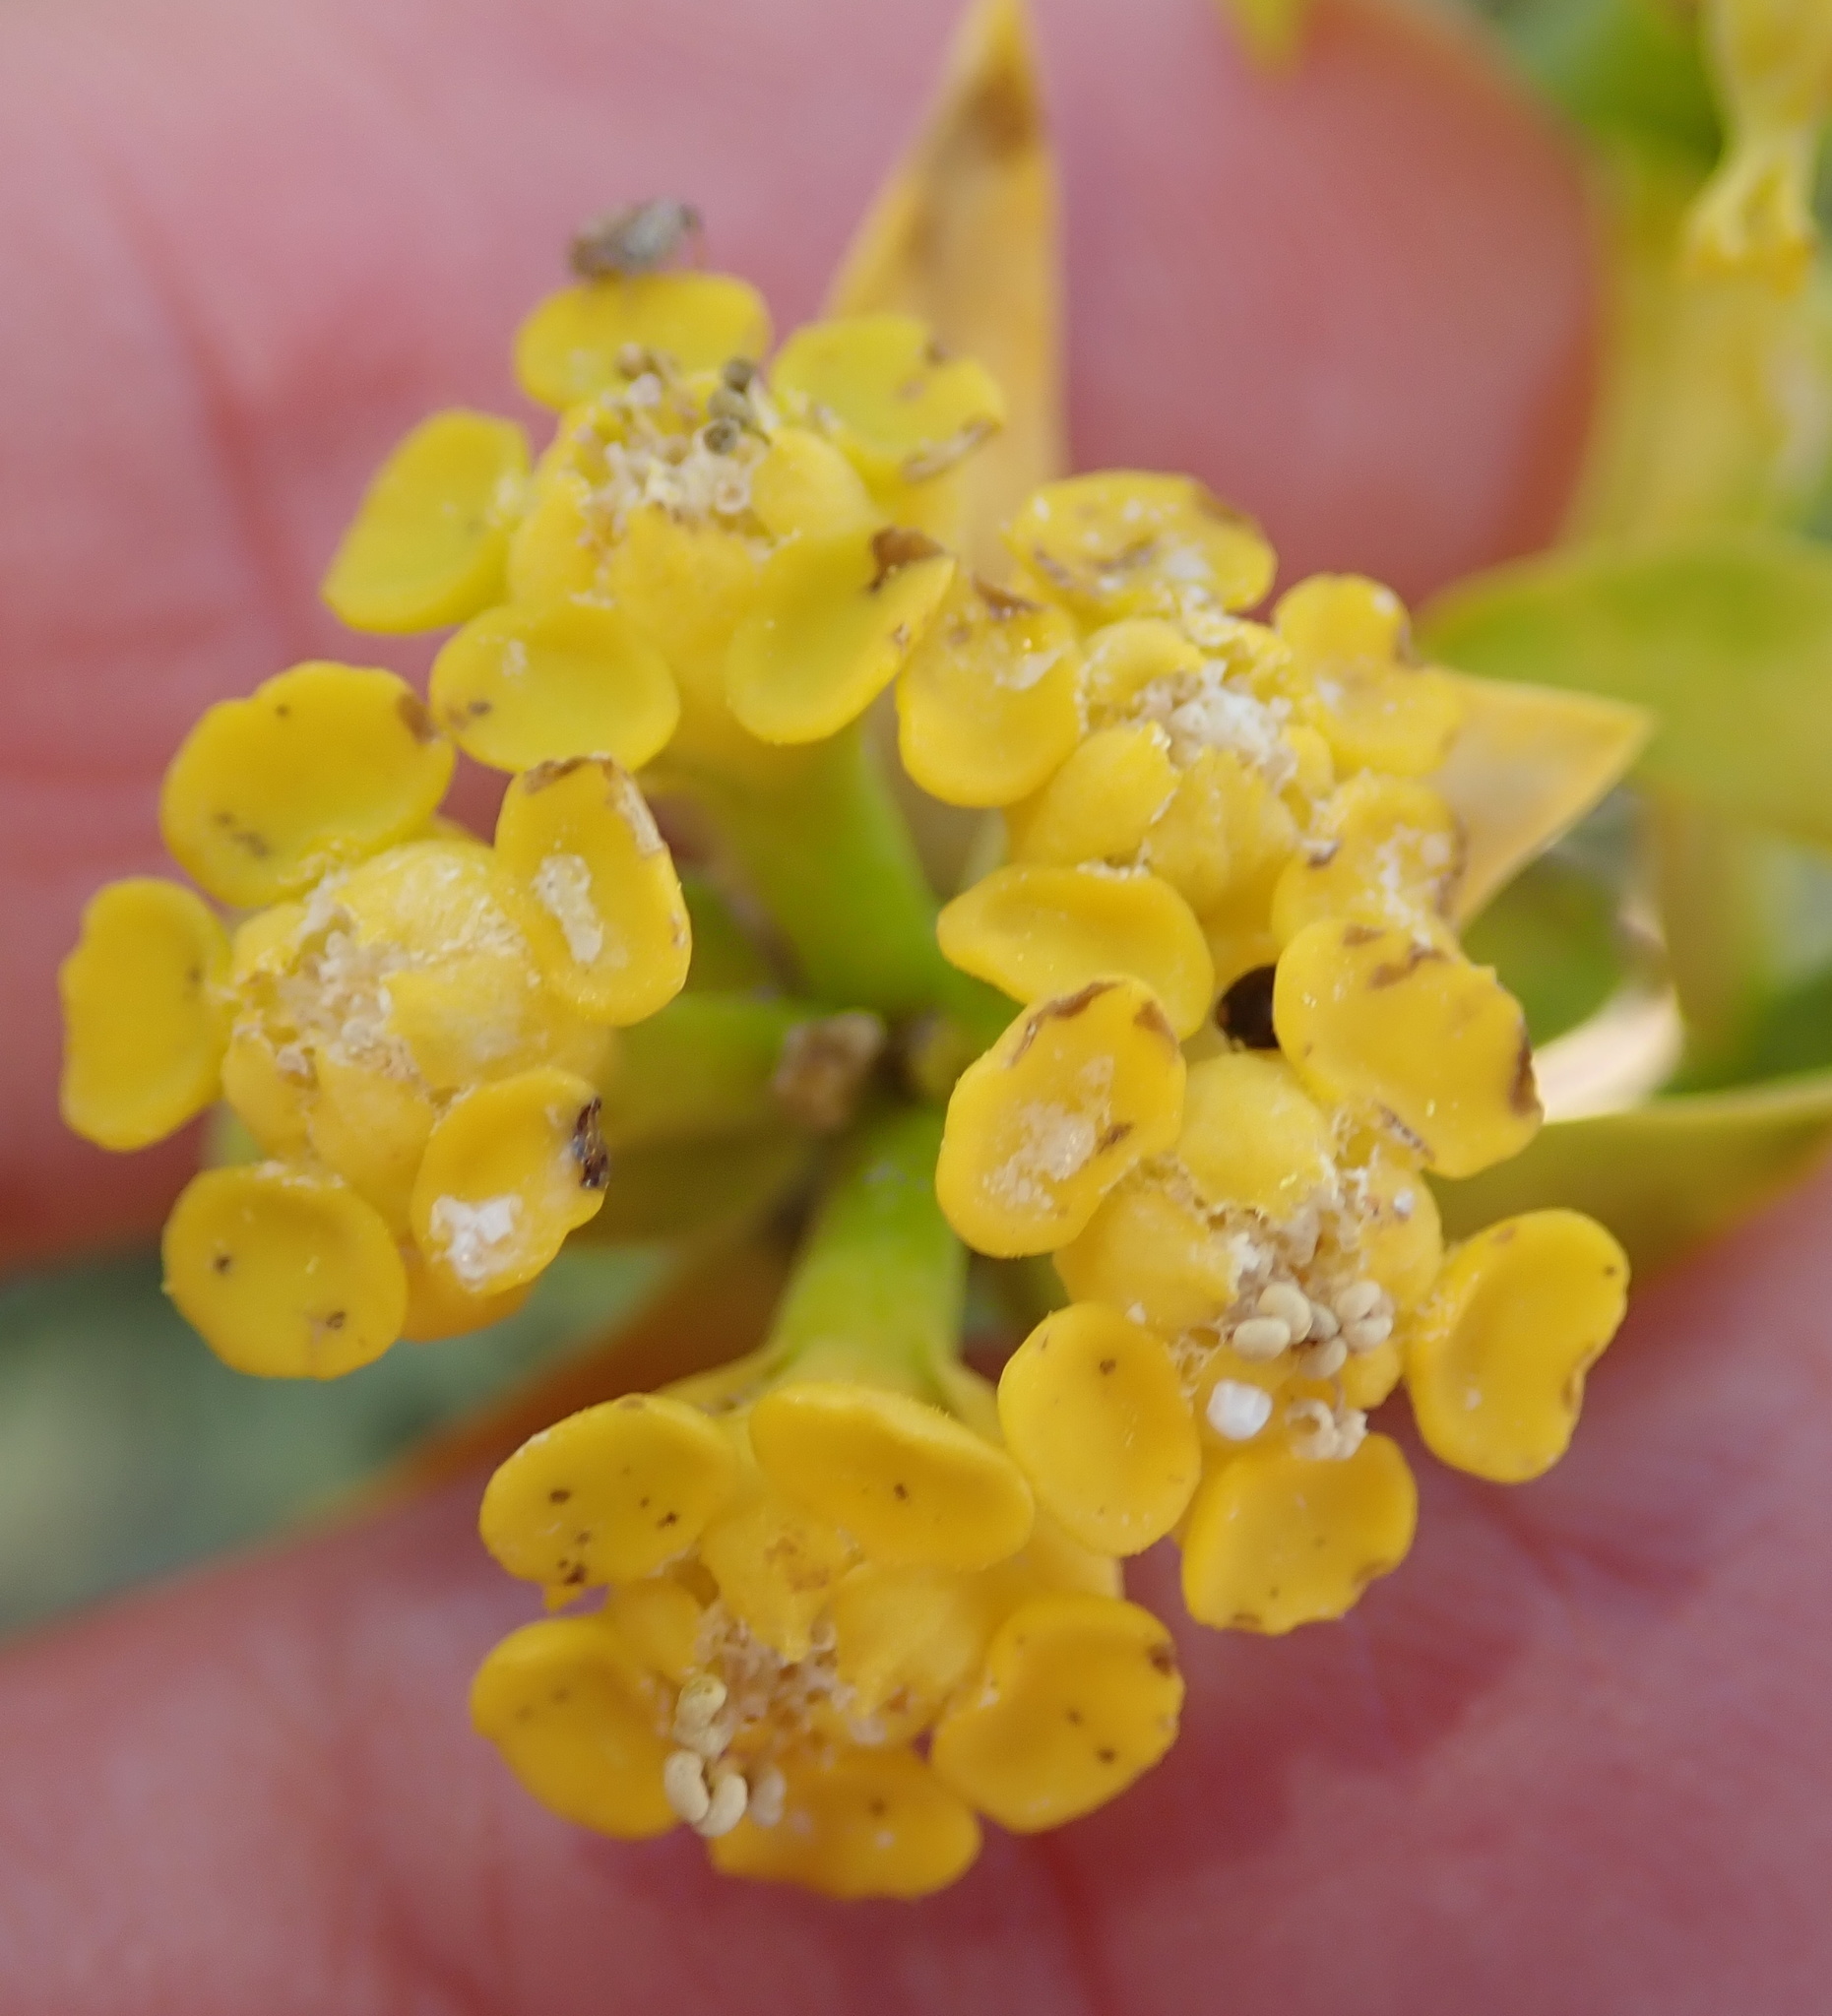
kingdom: Plantae
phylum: Tracheophyta
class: Magnoliopsida
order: Malpighiales
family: Euphorbiaceae
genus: Euphorbia
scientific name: Euphorbia mauritanica
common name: Jackal's-food
